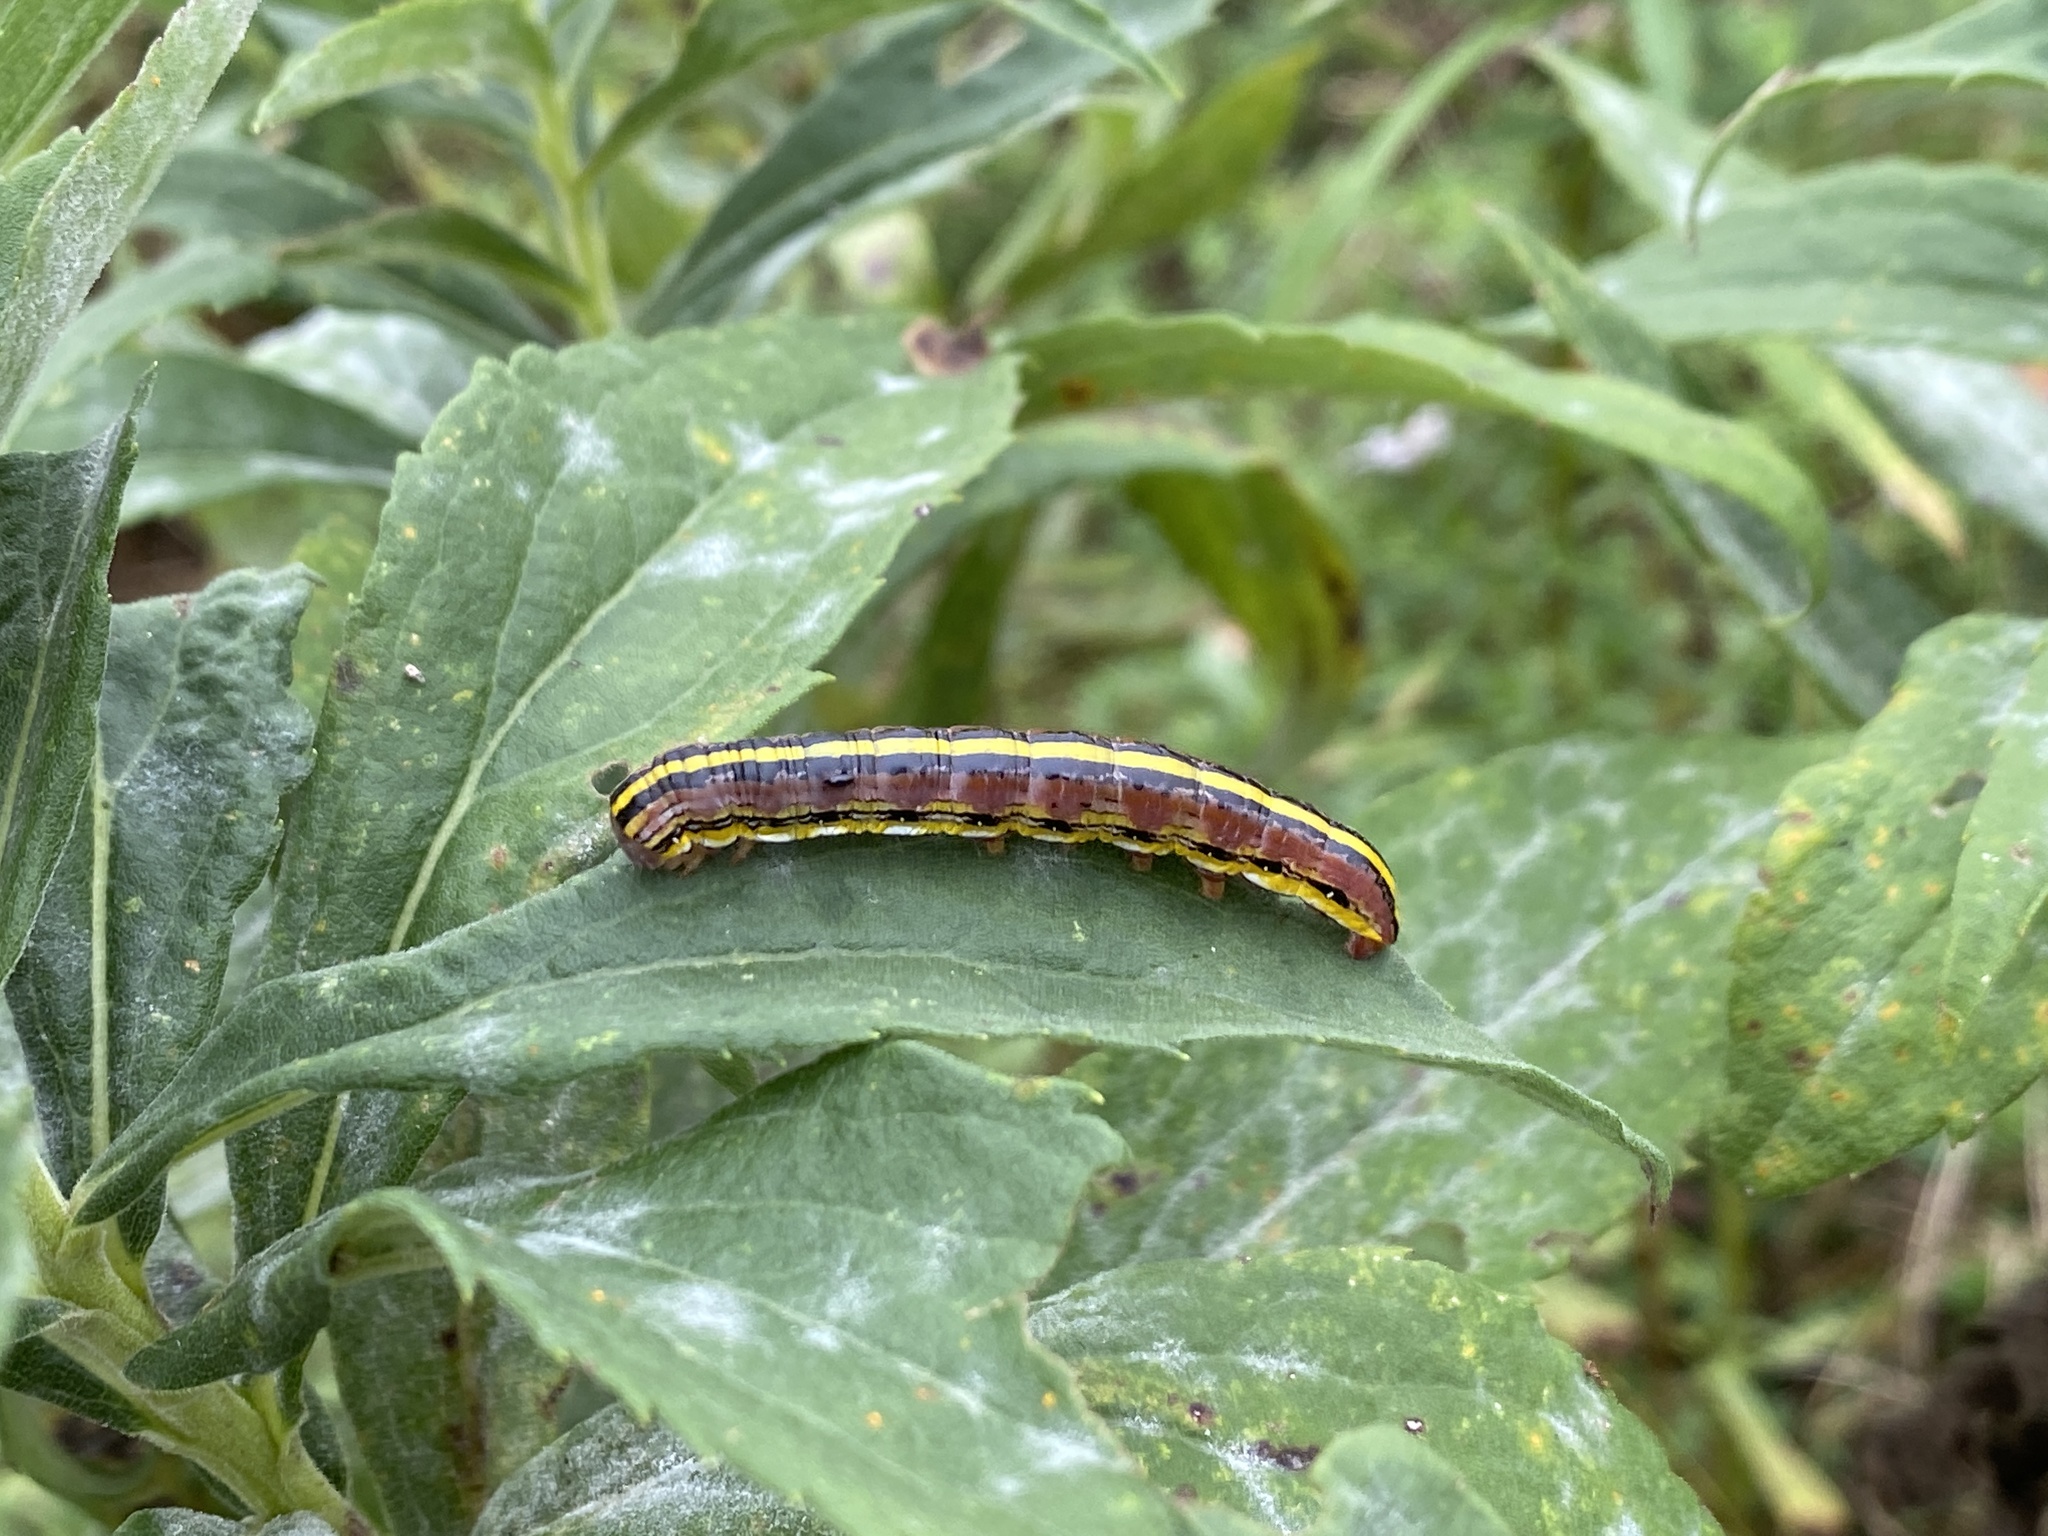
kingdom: Animalia
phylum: Arthropoda
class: Insecta
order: Lepidoptera
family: Noctuidae
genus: Cucullia
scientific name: Cucullia asteroides
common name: Asteroid moth
